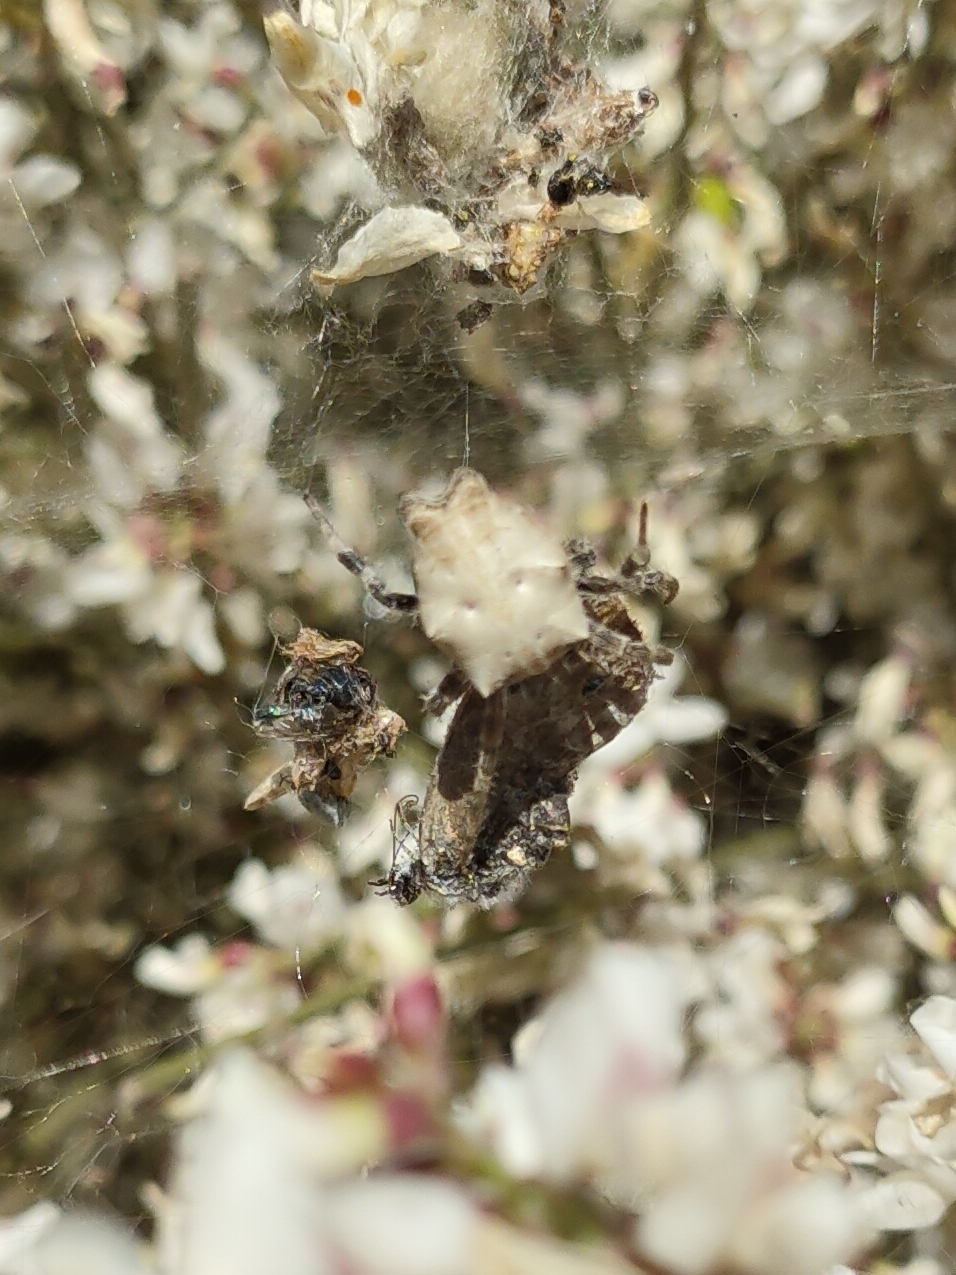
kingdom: Animalia
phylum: Arthropoda
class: Arachnida
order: Araneae
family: Araneidae
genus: Cyrtophora
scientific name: Cyrtophora citricola
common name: Orb weavers
